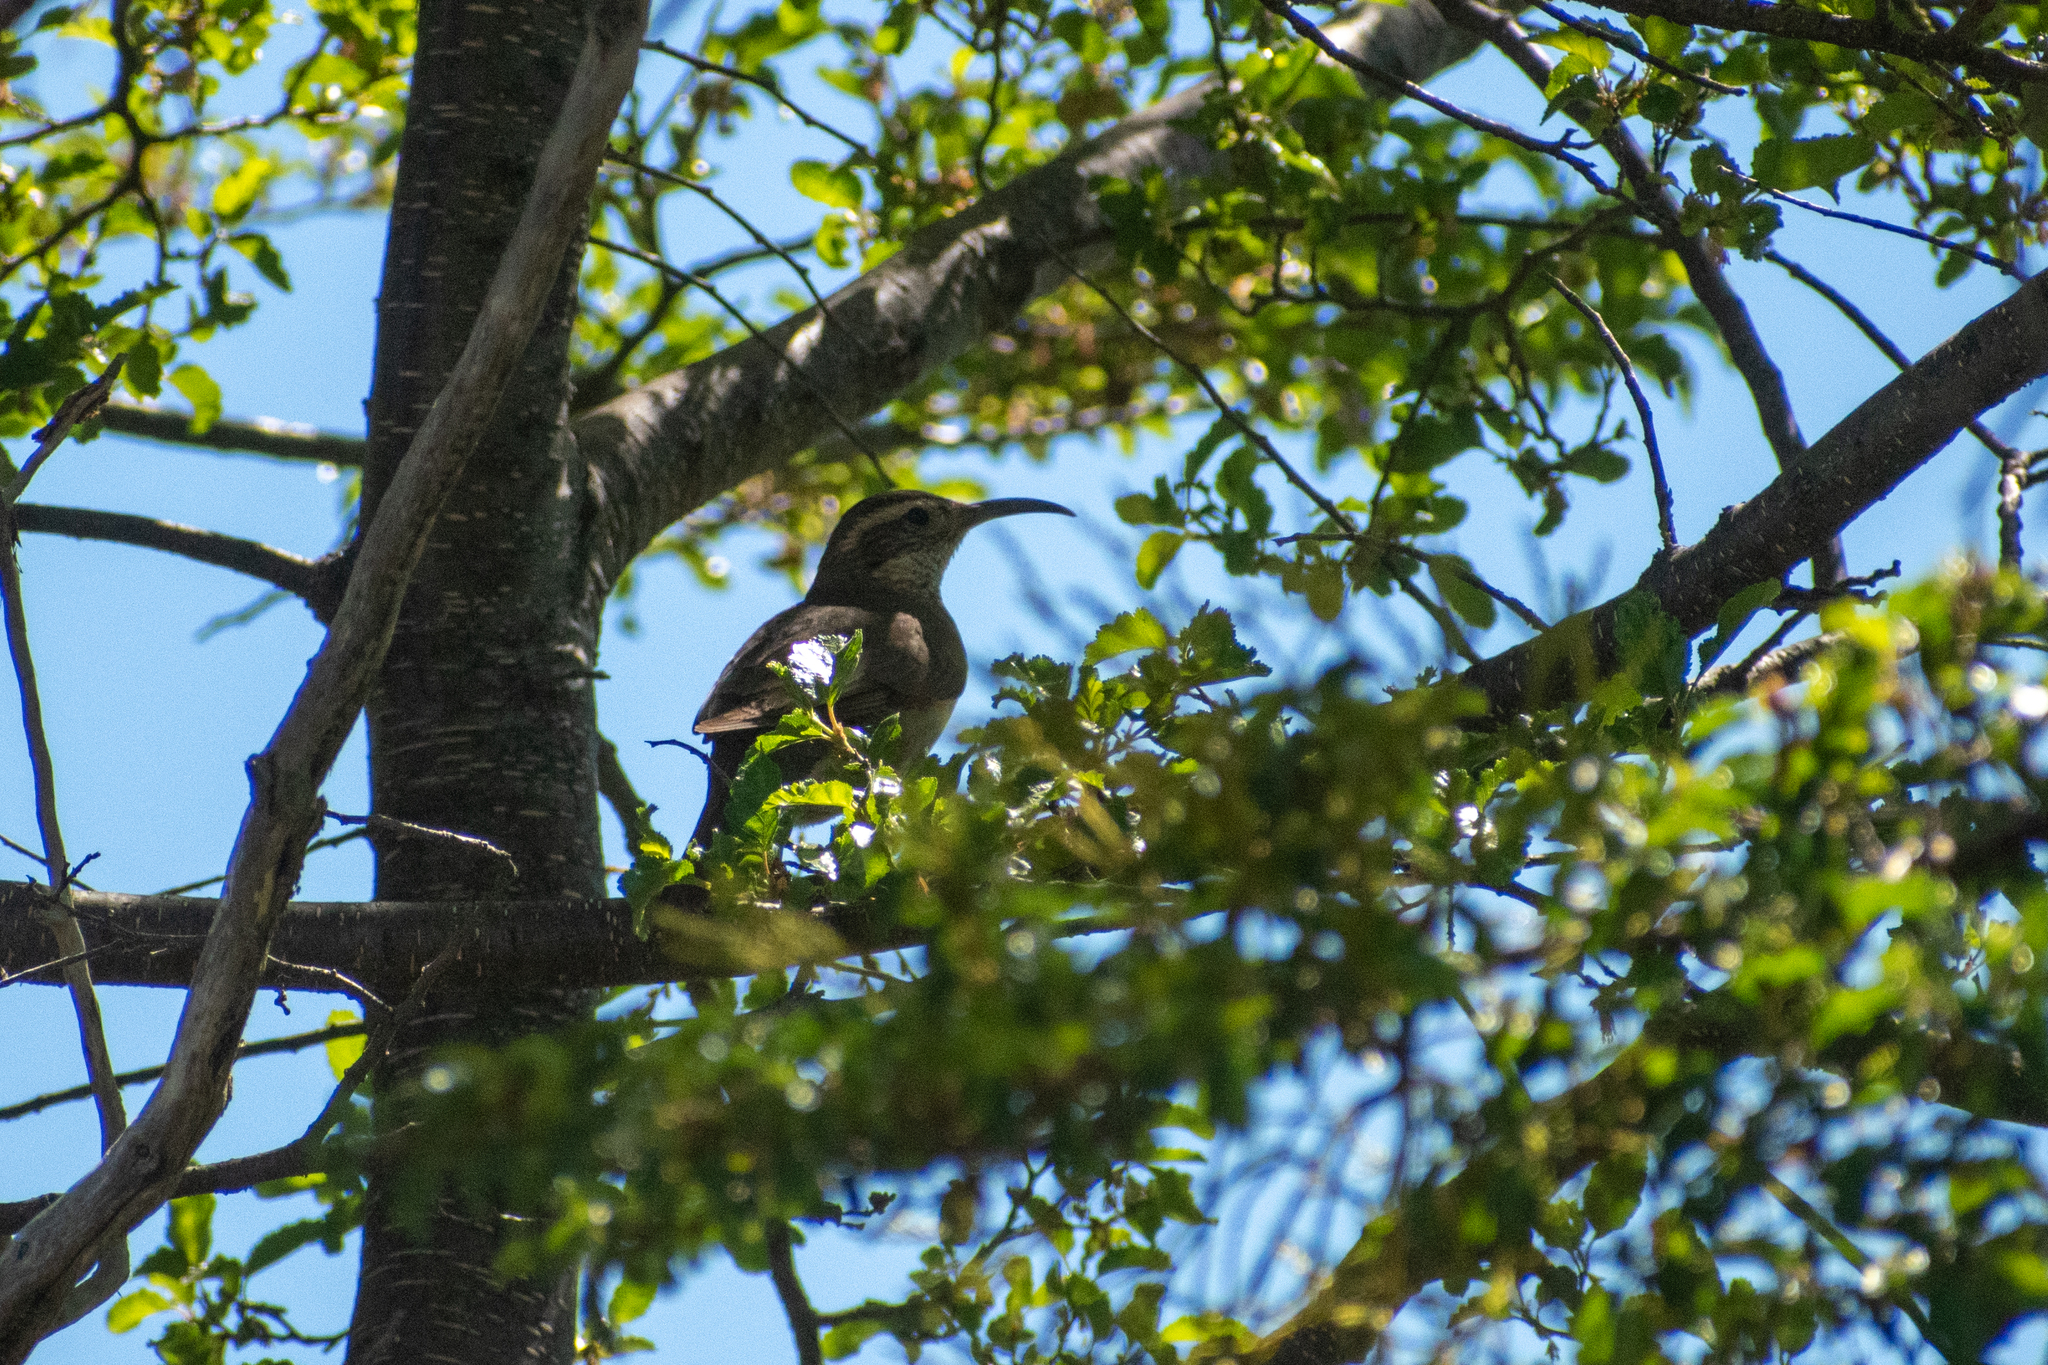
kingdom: Animalia
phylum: Chordata
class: Aves
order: Passeriformes
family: Furnariidae
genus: Upucerthia
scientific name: Upucerthia saturatior
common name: Patagonian forest earthcreeper
